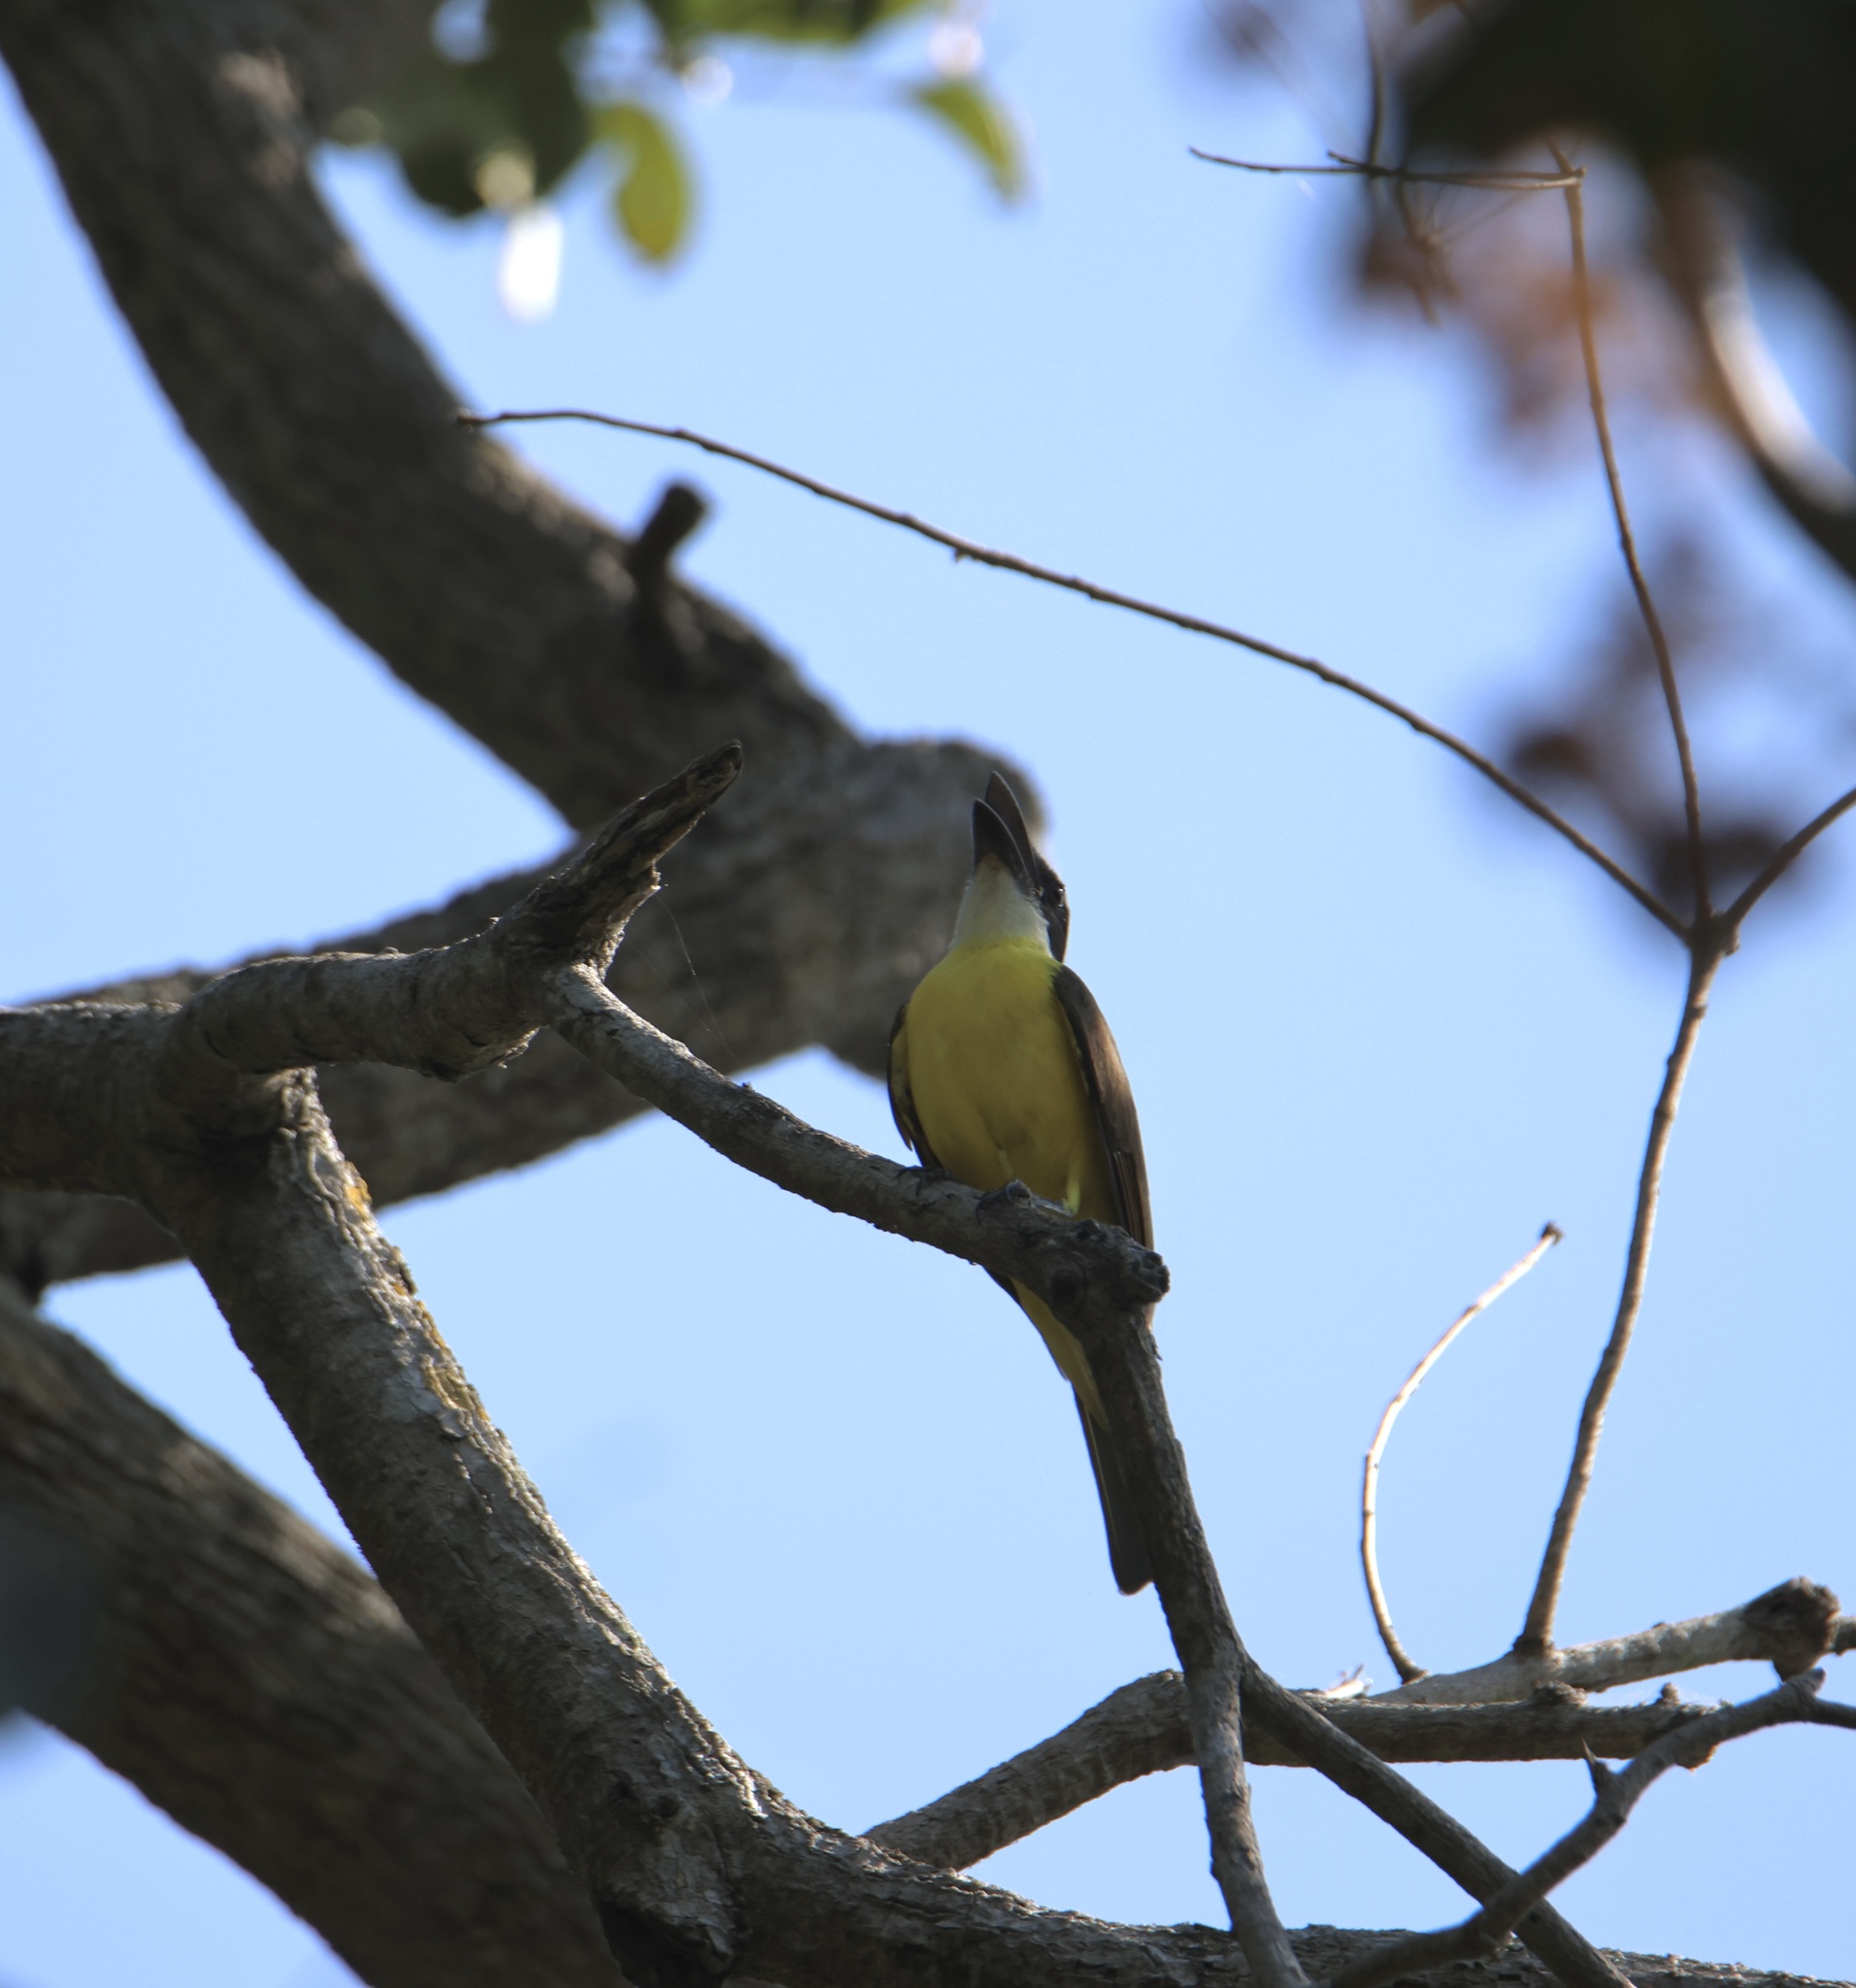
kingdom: Animalia
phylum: Chordata
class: Aves
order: Passeriformes
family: Tyrannidae
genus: Megarynchus
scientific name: Megarynchus pitangua
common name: Boat-billed flycatcher
